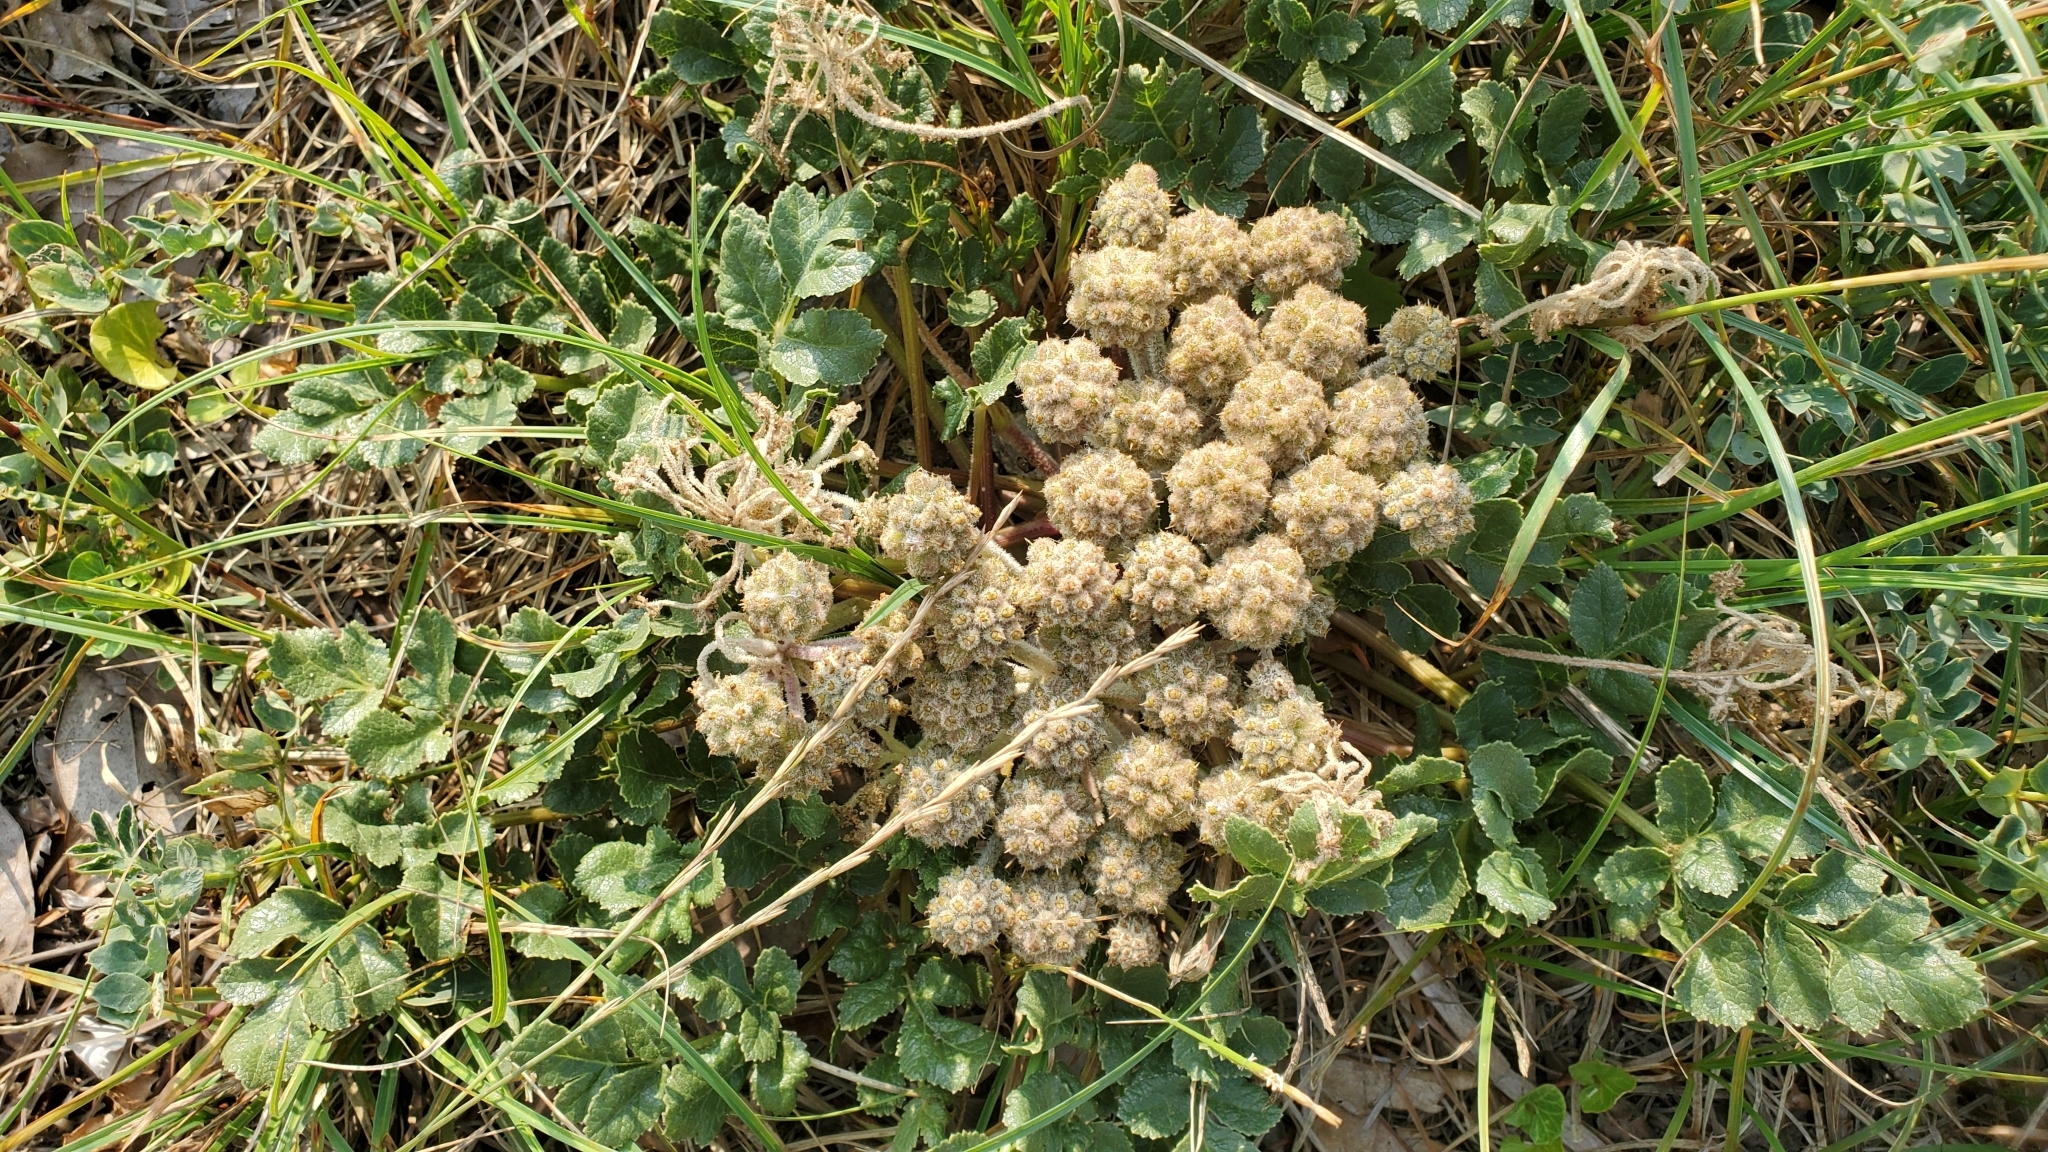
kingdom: Plantae
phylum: Tracheophyta
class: Magnoliopsida
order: Apiales
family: Apiaceae
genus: Glehnia
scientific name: Glehnia littoralis
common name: Beach silvertop
